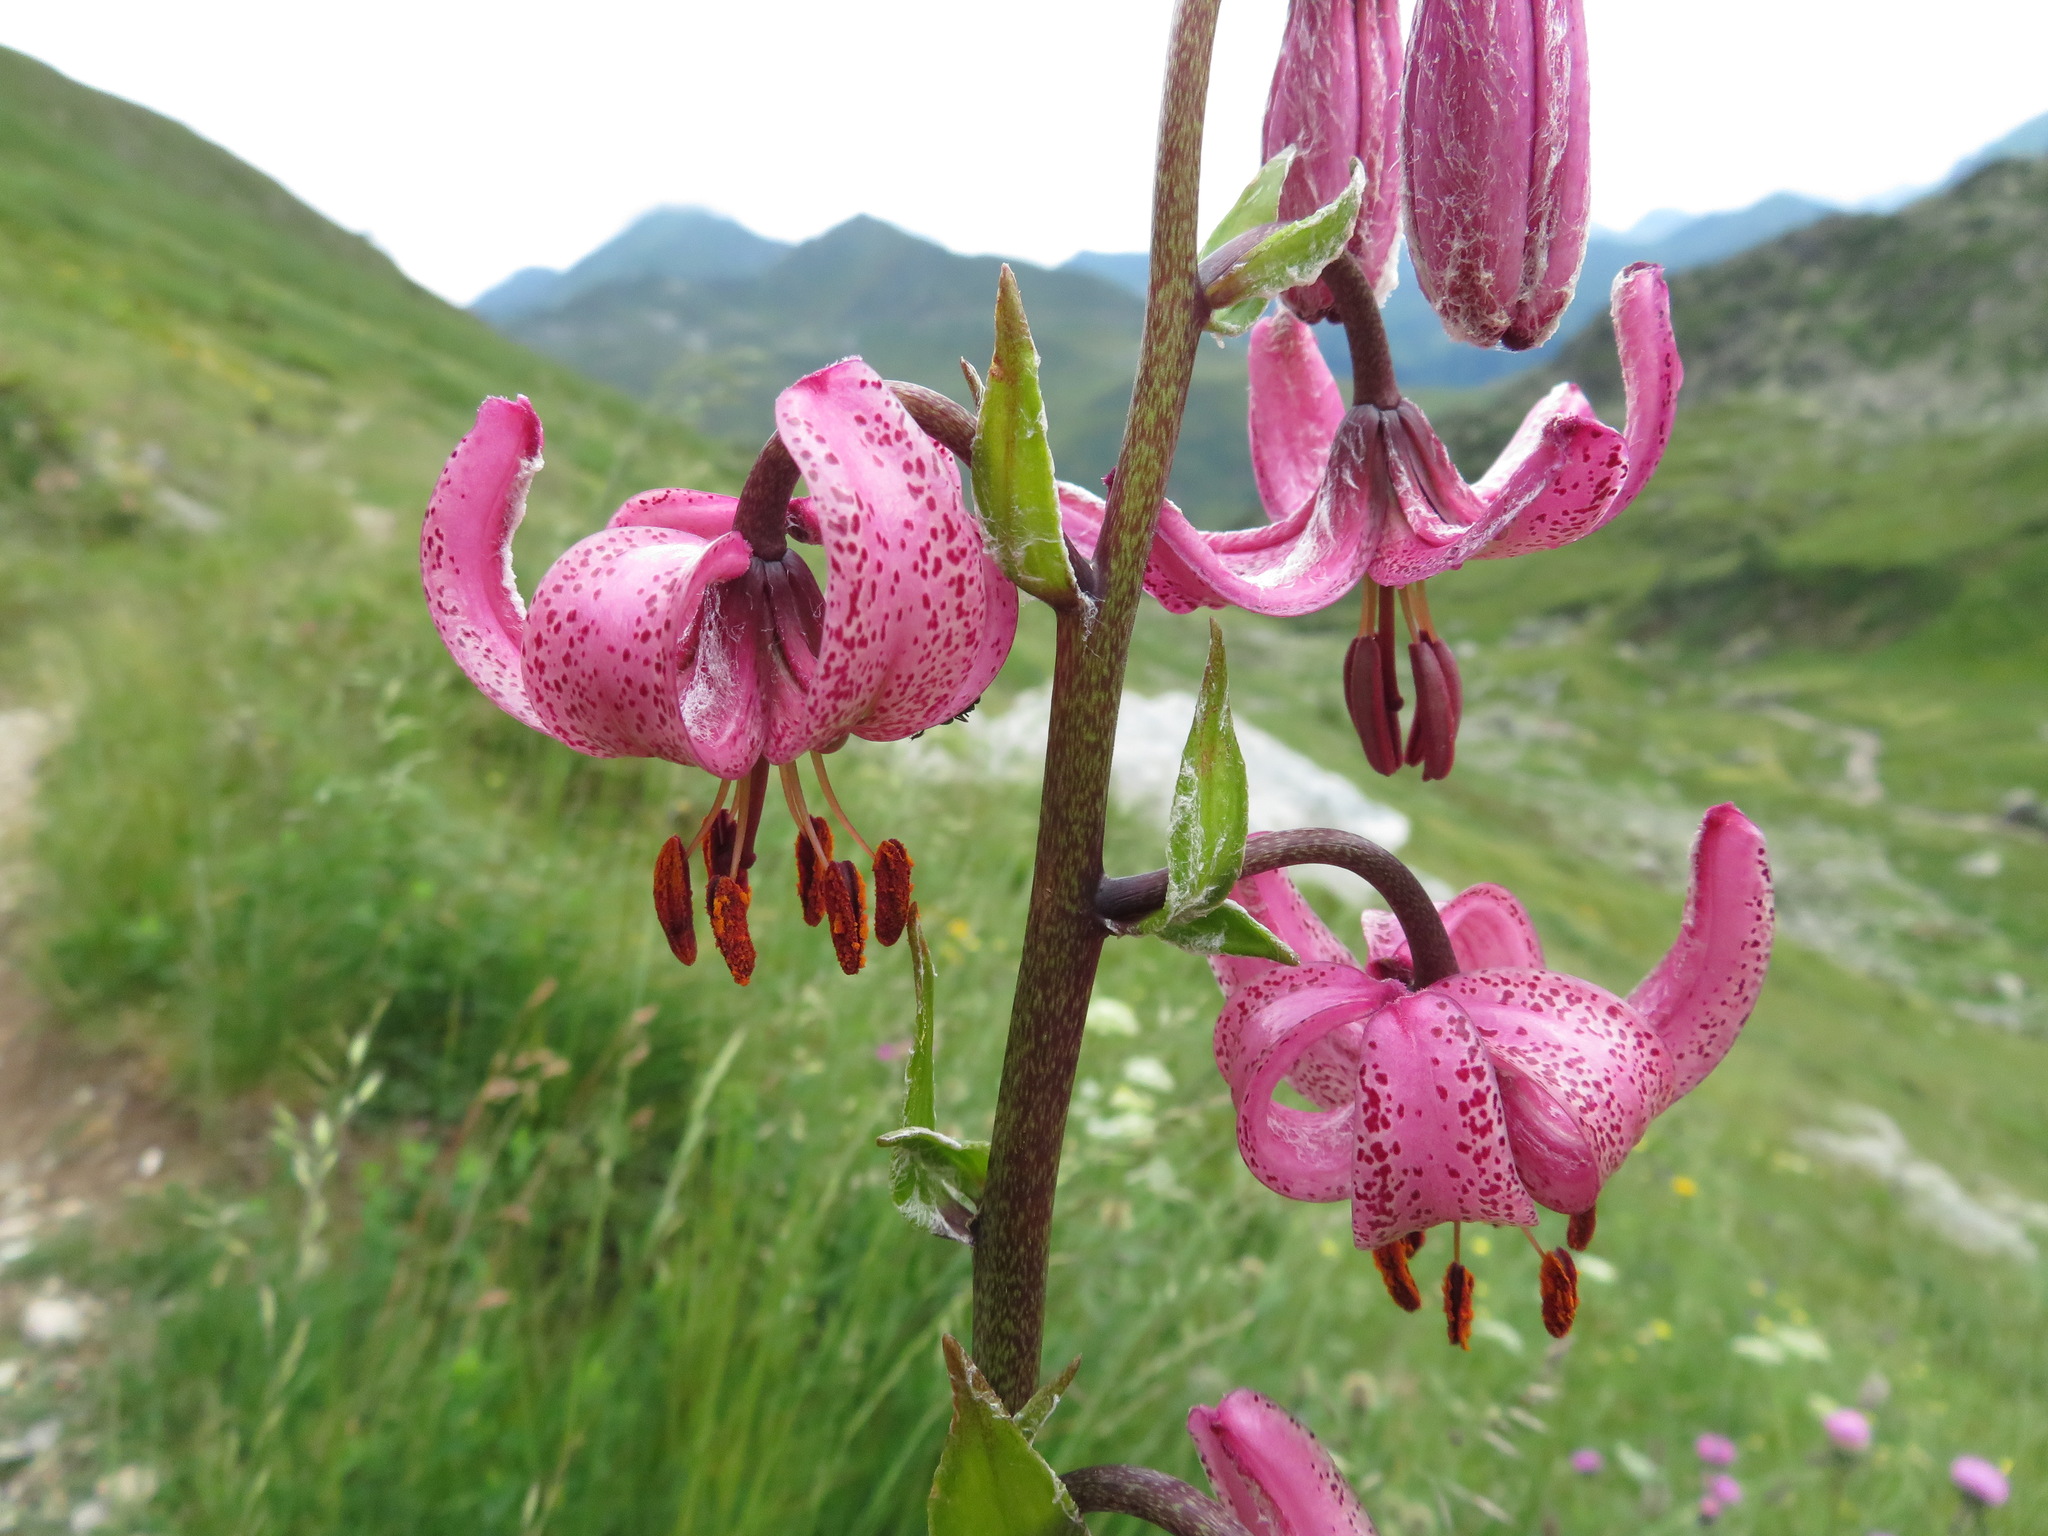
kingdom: Plantae
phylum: Tracheophyta
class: Liliopsida
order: Liliales
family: Liliaceae
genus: Lilium
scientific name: Lilium martagon
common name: Martagon lily
